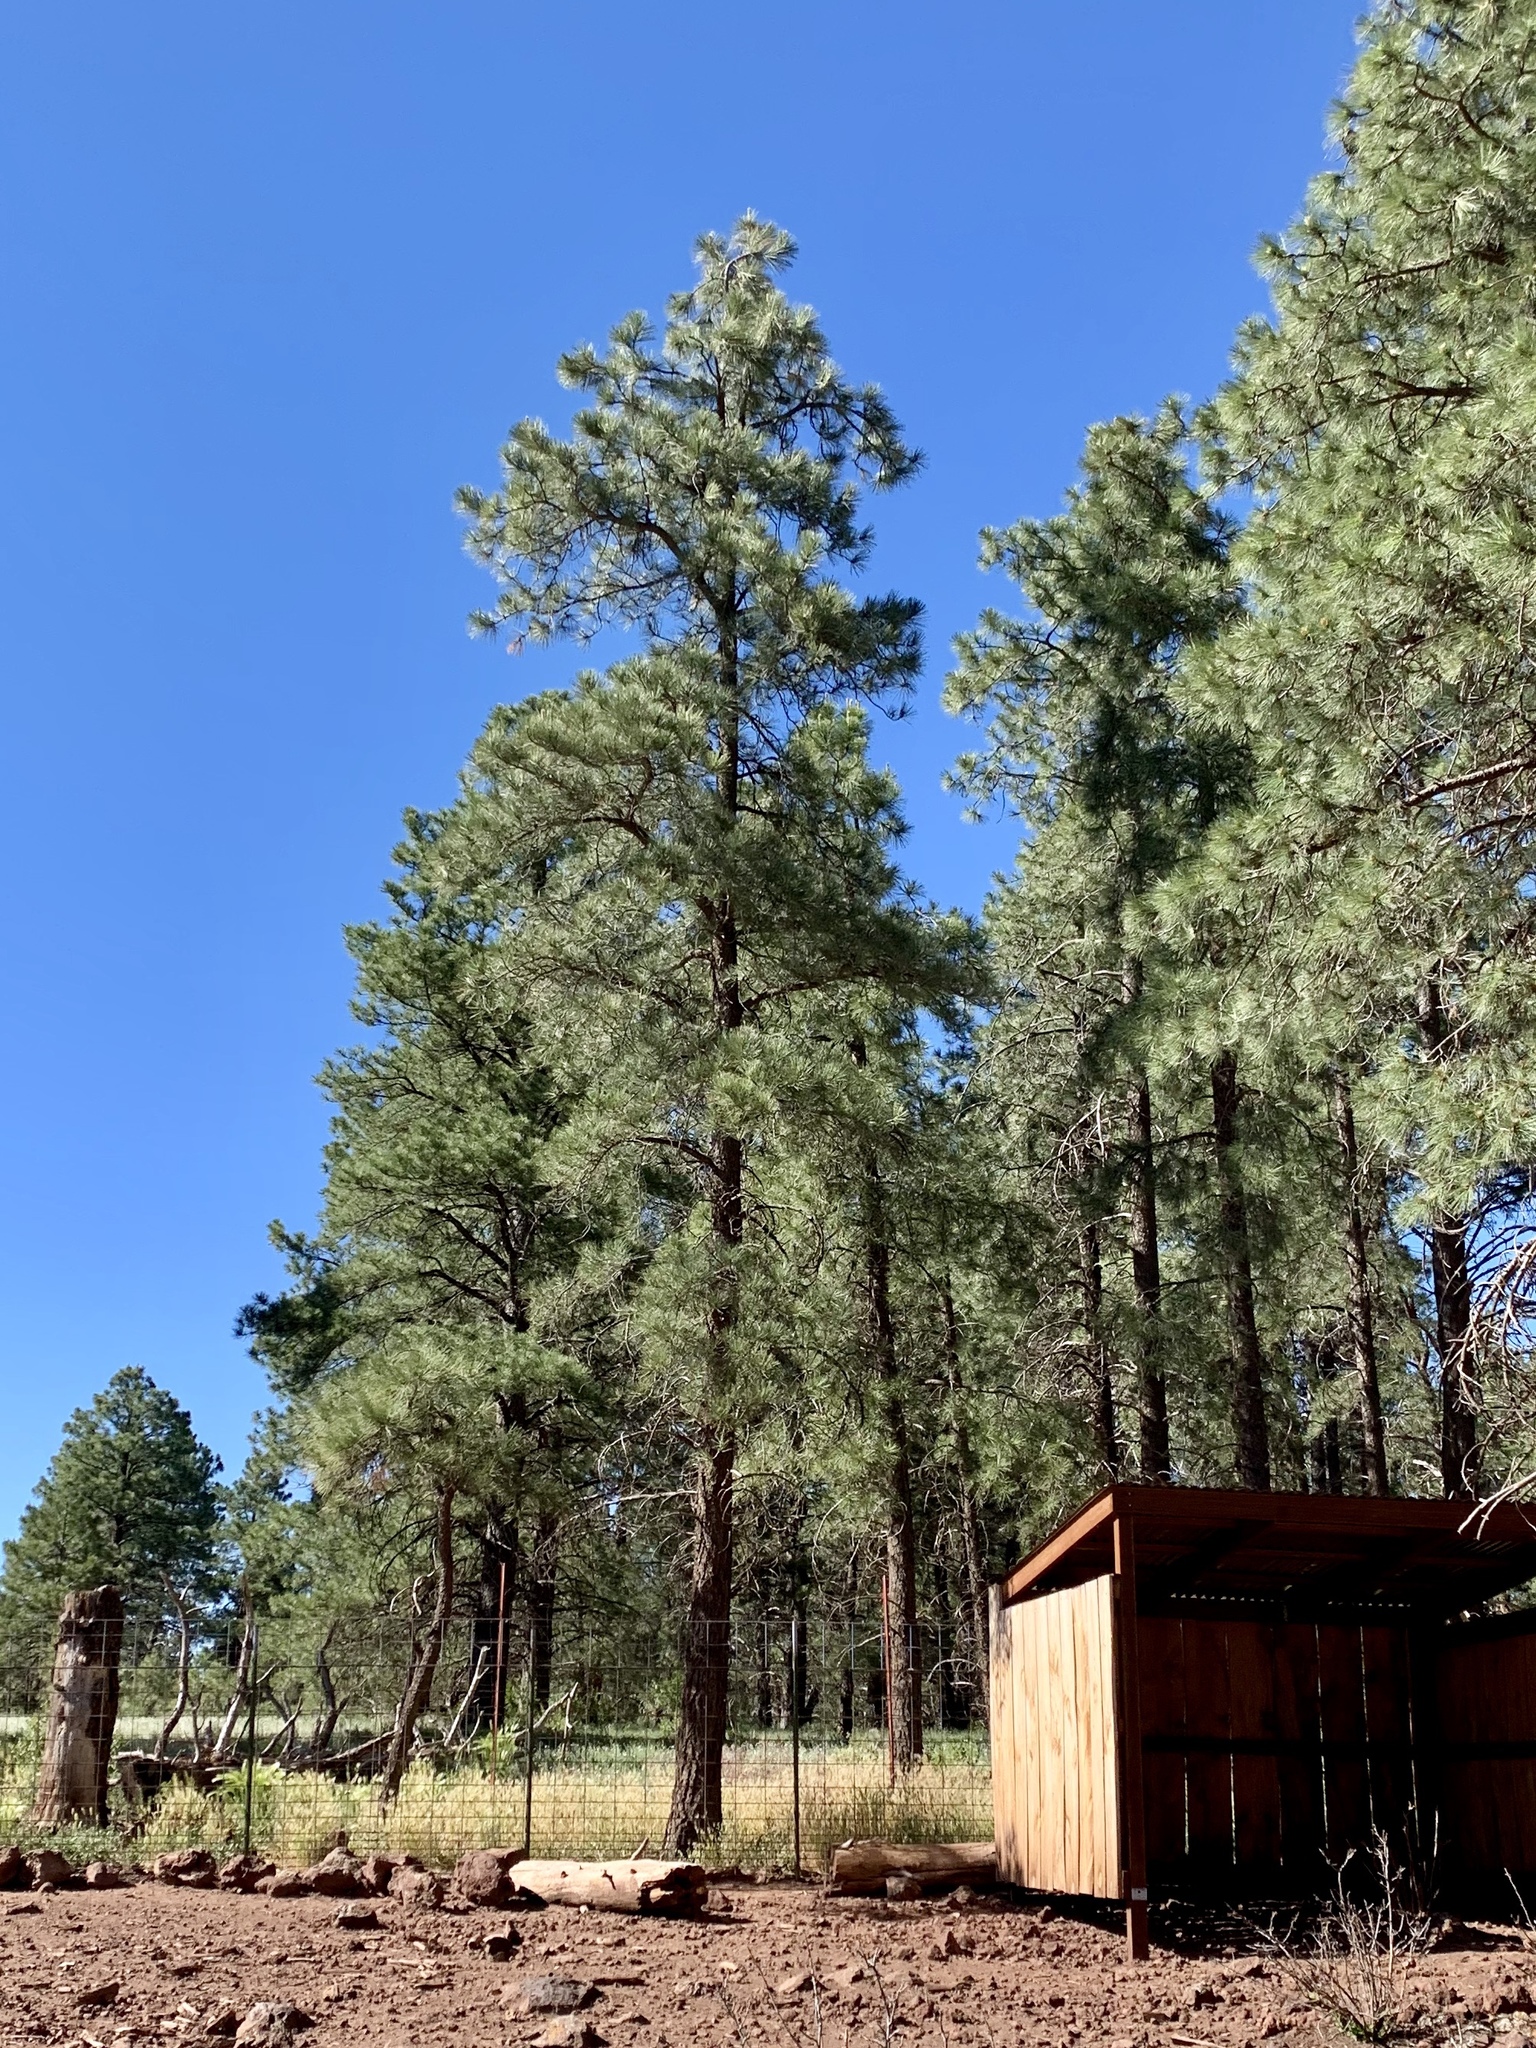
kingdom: Plantae
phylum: Tracheophyta
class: Pinopsida
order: Pinales
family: Pinaceae
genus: Pinus
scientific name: Pinus ponderosa
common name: Western yellow-pine
